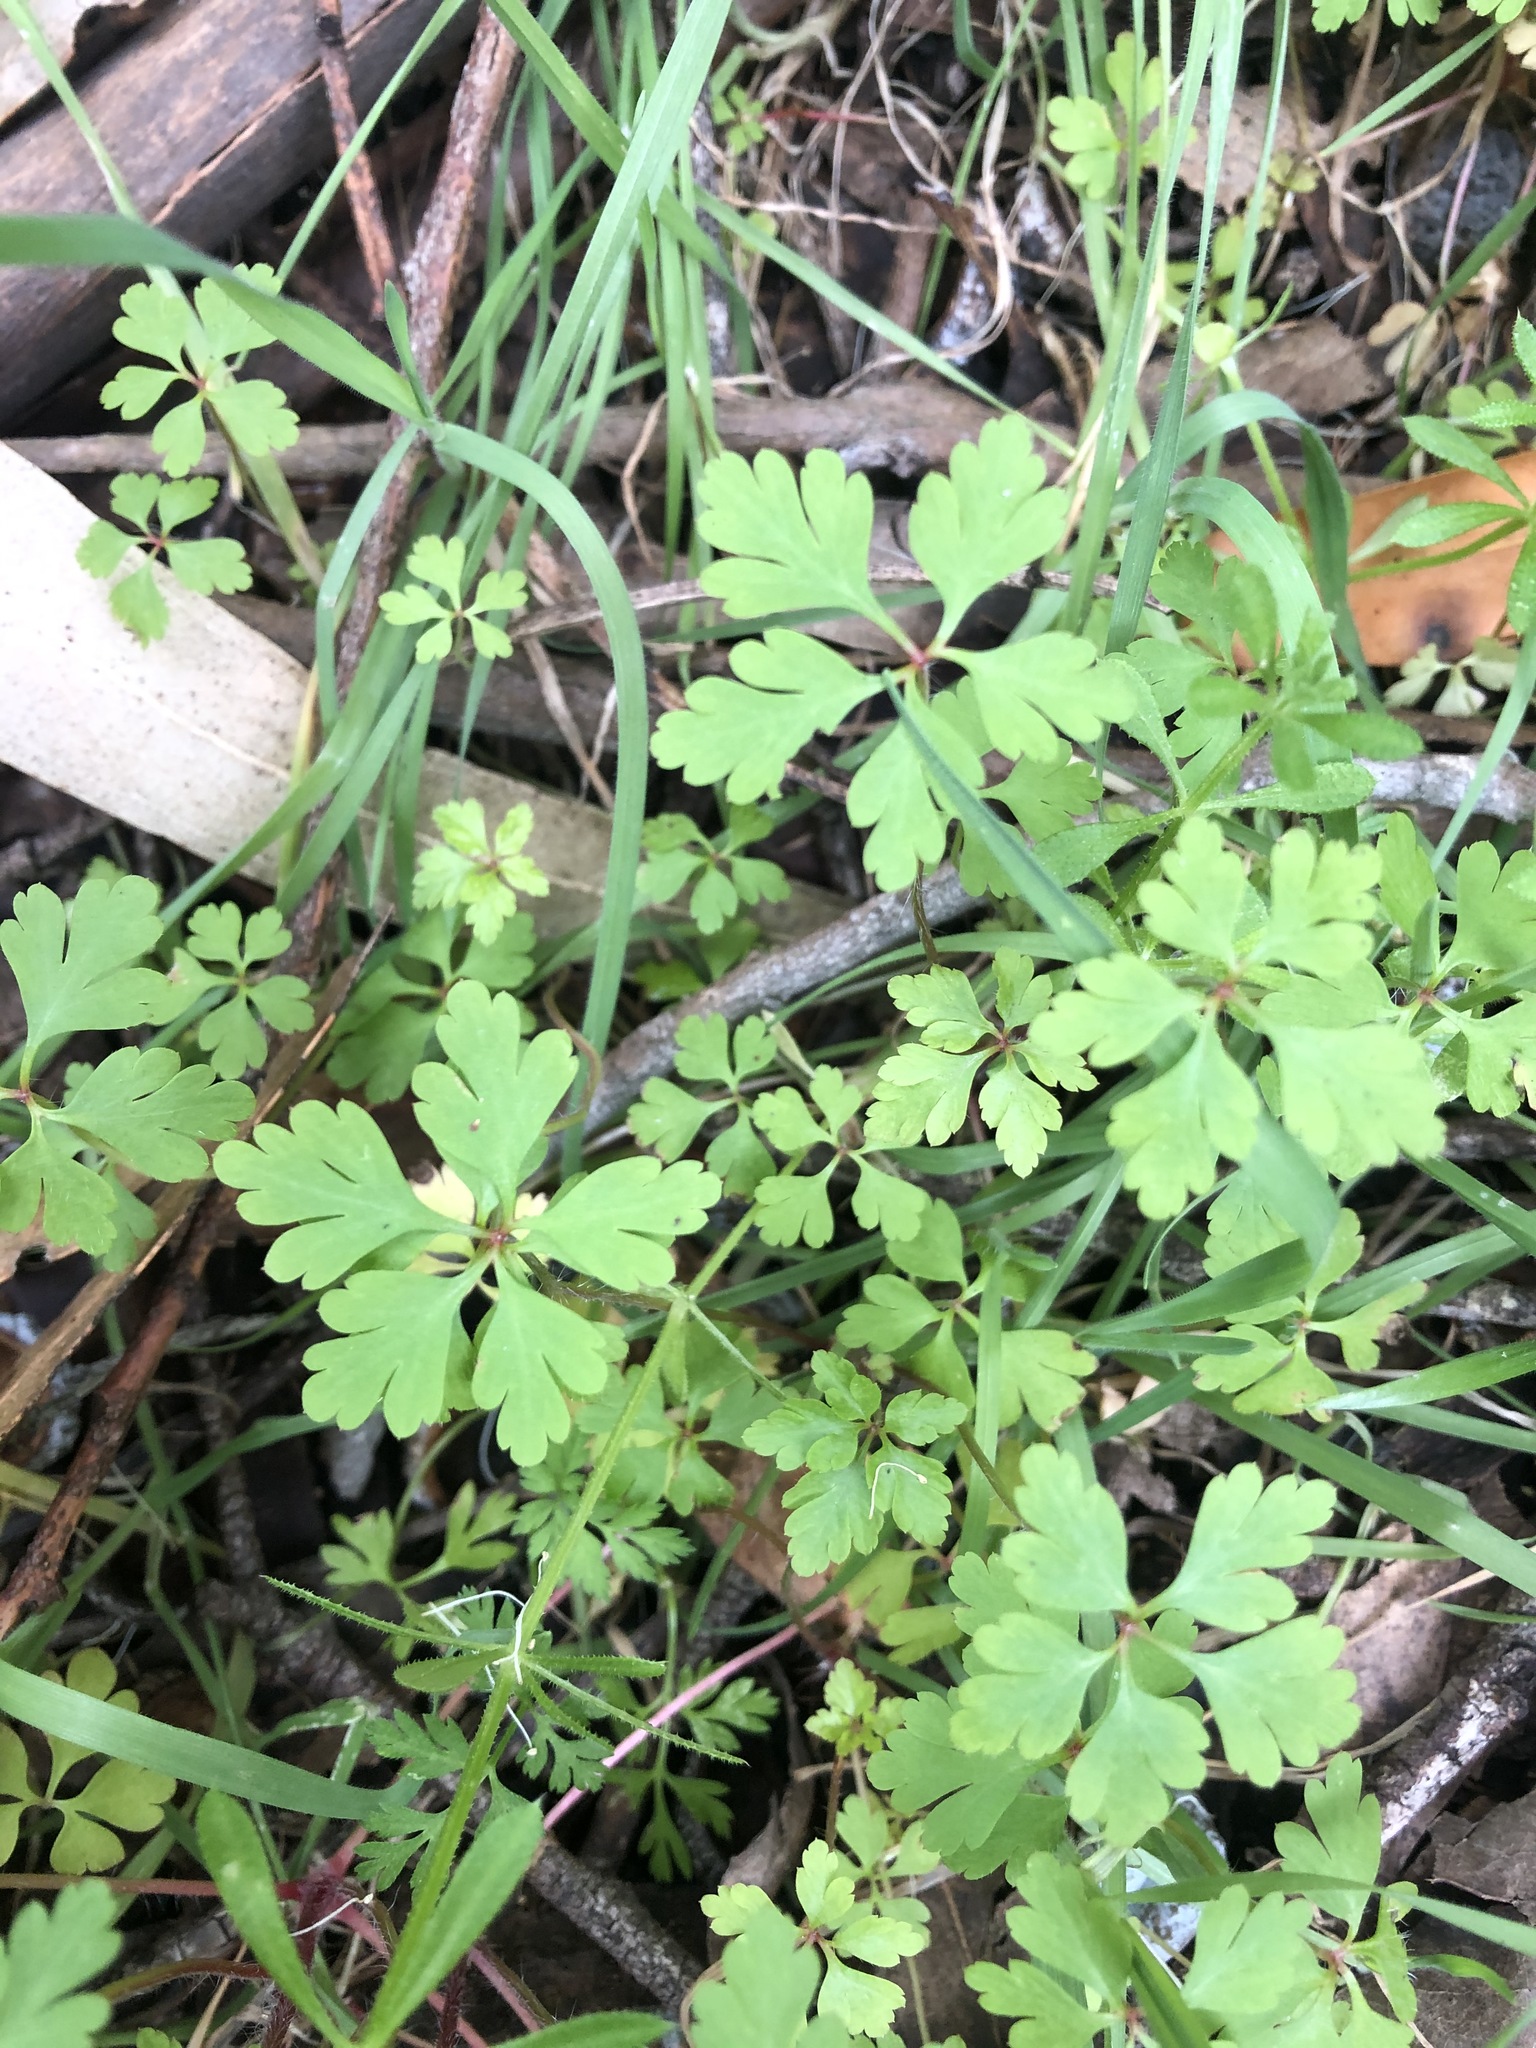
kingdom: Plantae
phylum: Tracheophyta
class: Magnoliopsida
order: Geraniales
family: Geraniaceae
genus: Geranium
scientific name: Geranium
